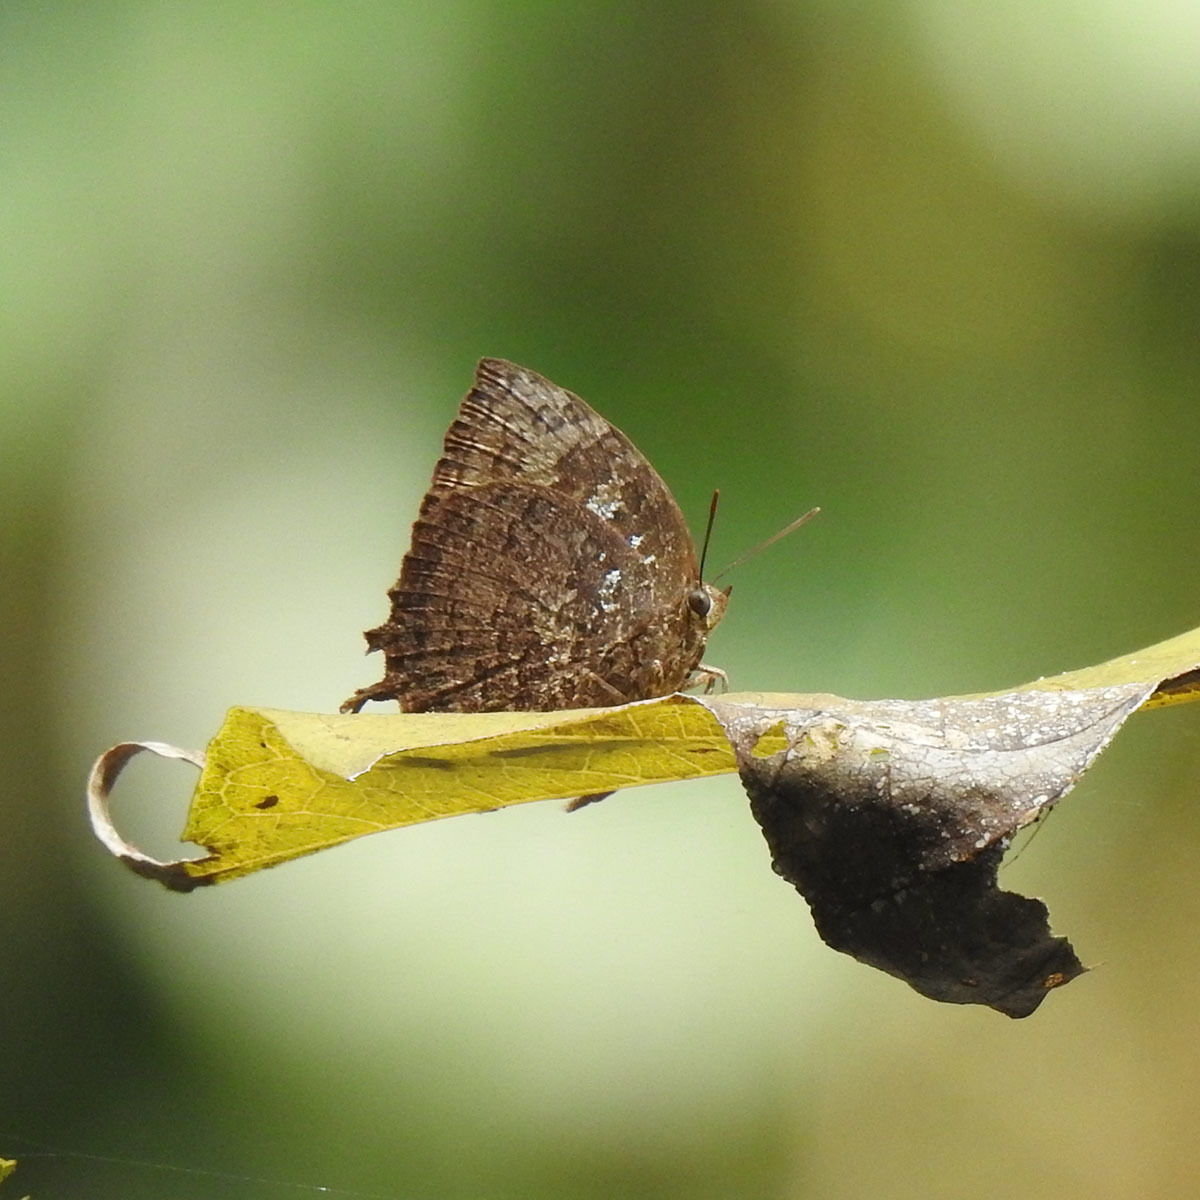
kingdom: Animalia
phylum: Arthropoda
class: Insecta
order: Lepidoptera
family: Lycaenidae
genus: Thaduka
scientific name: Thaduka multicaudata
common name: Many-tailed oakblue
